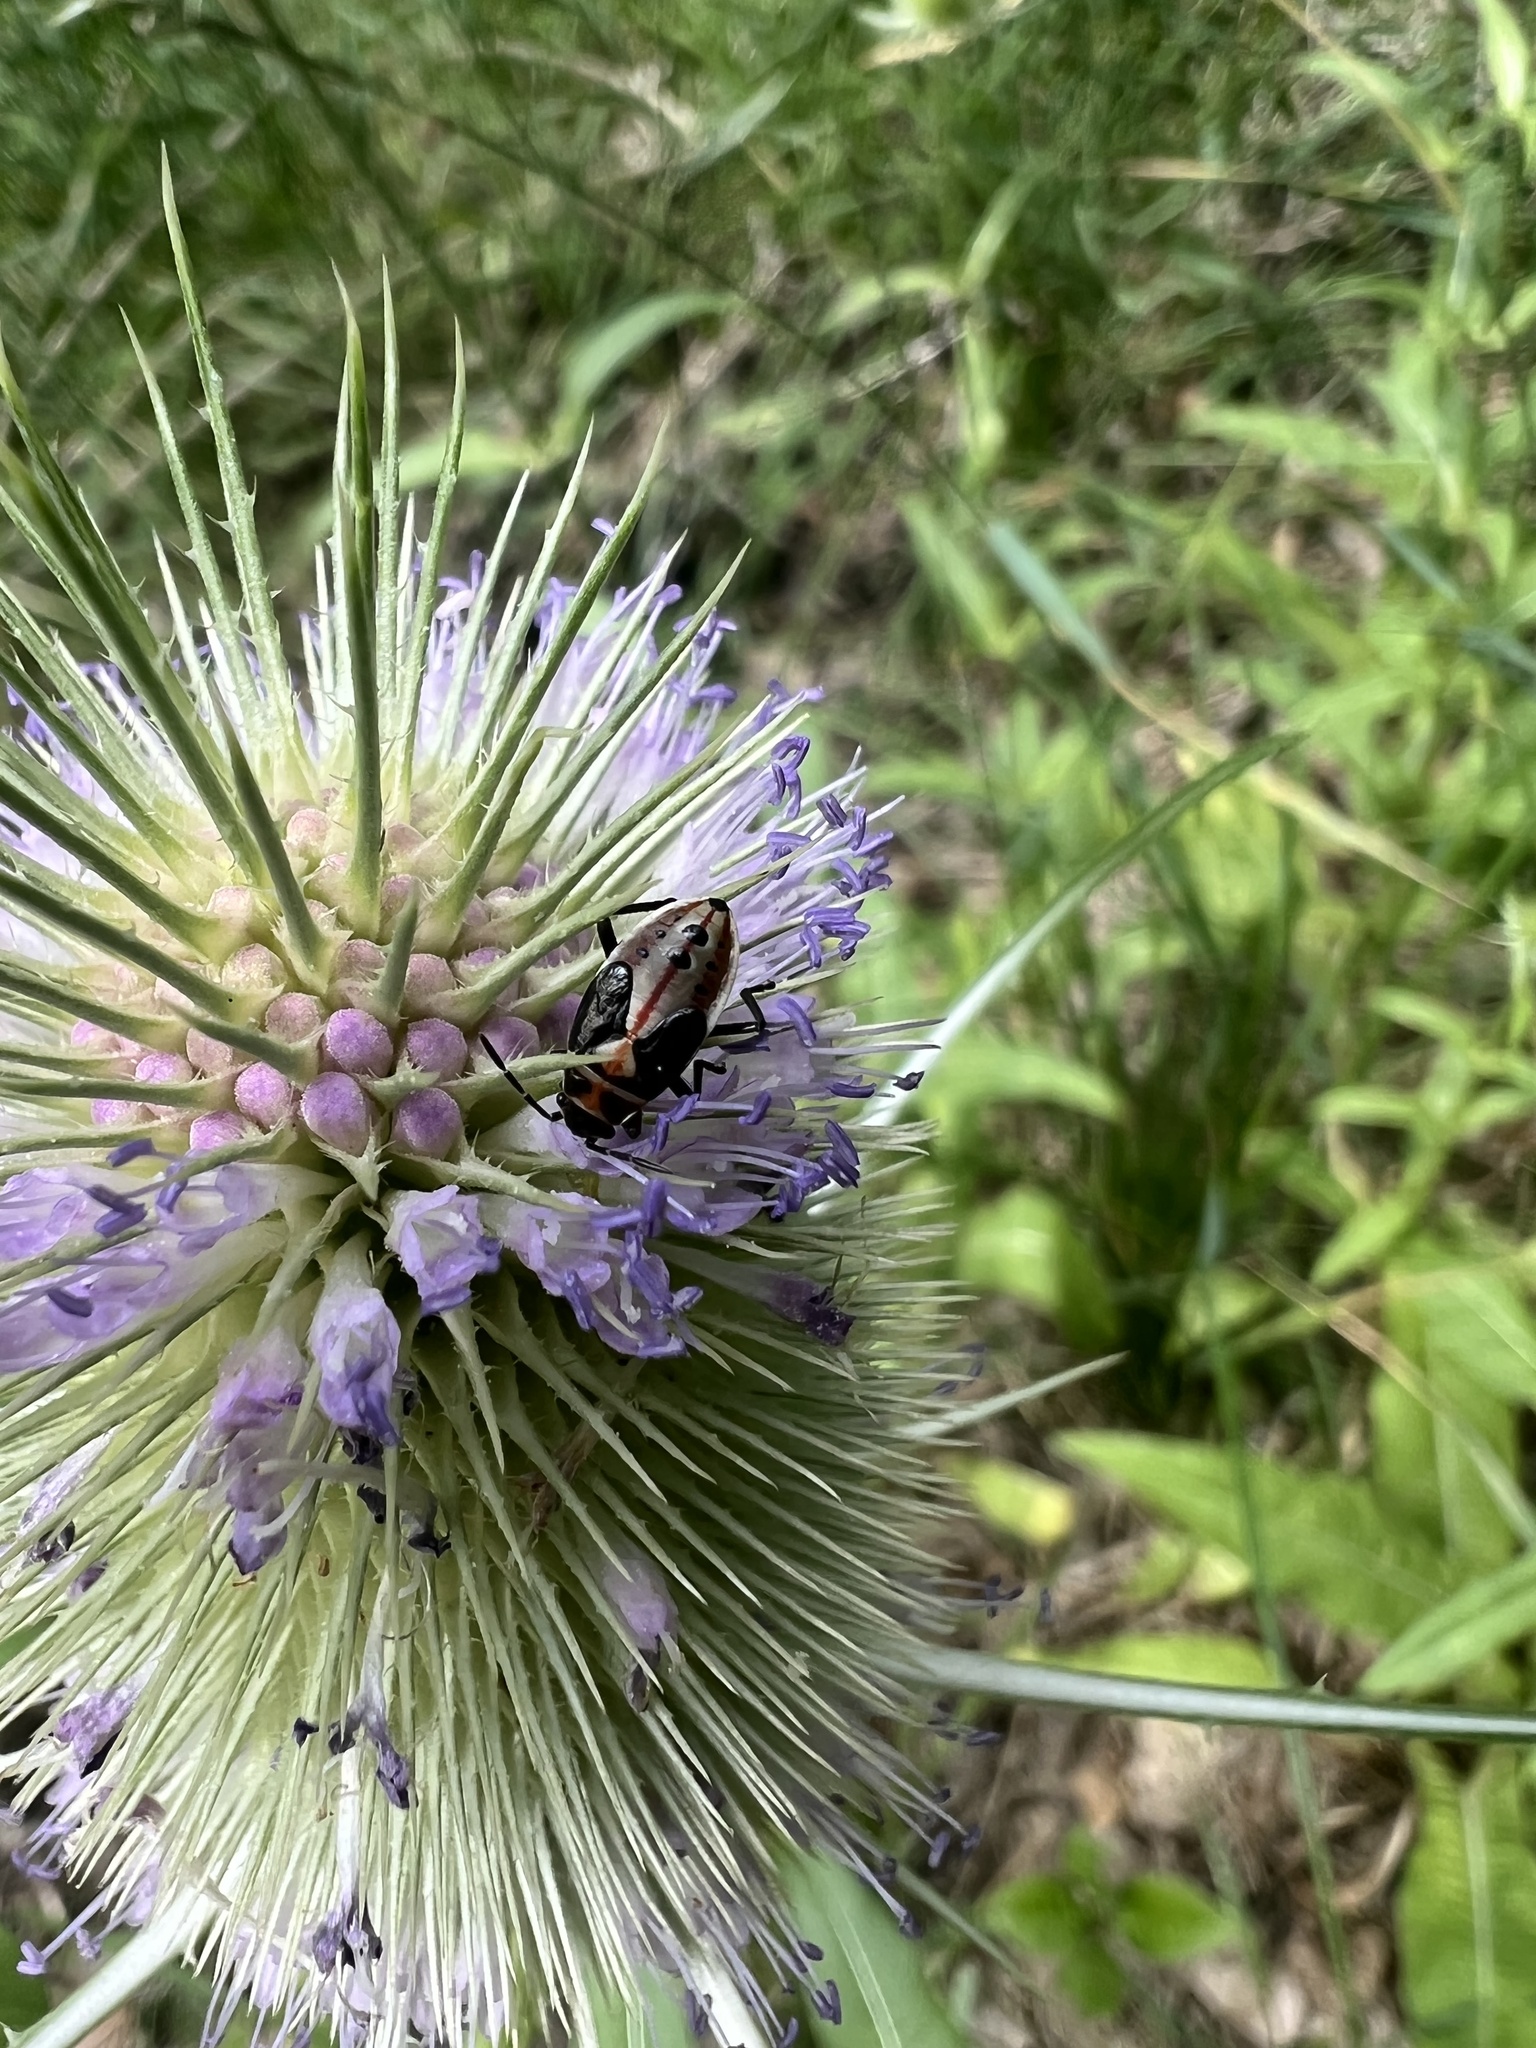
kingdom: Animalia
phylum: Arthropoda
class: Insecta
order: Hemiptera
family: Lygaeidae
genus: Lygaeus
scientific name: Lygaeus kalmii
